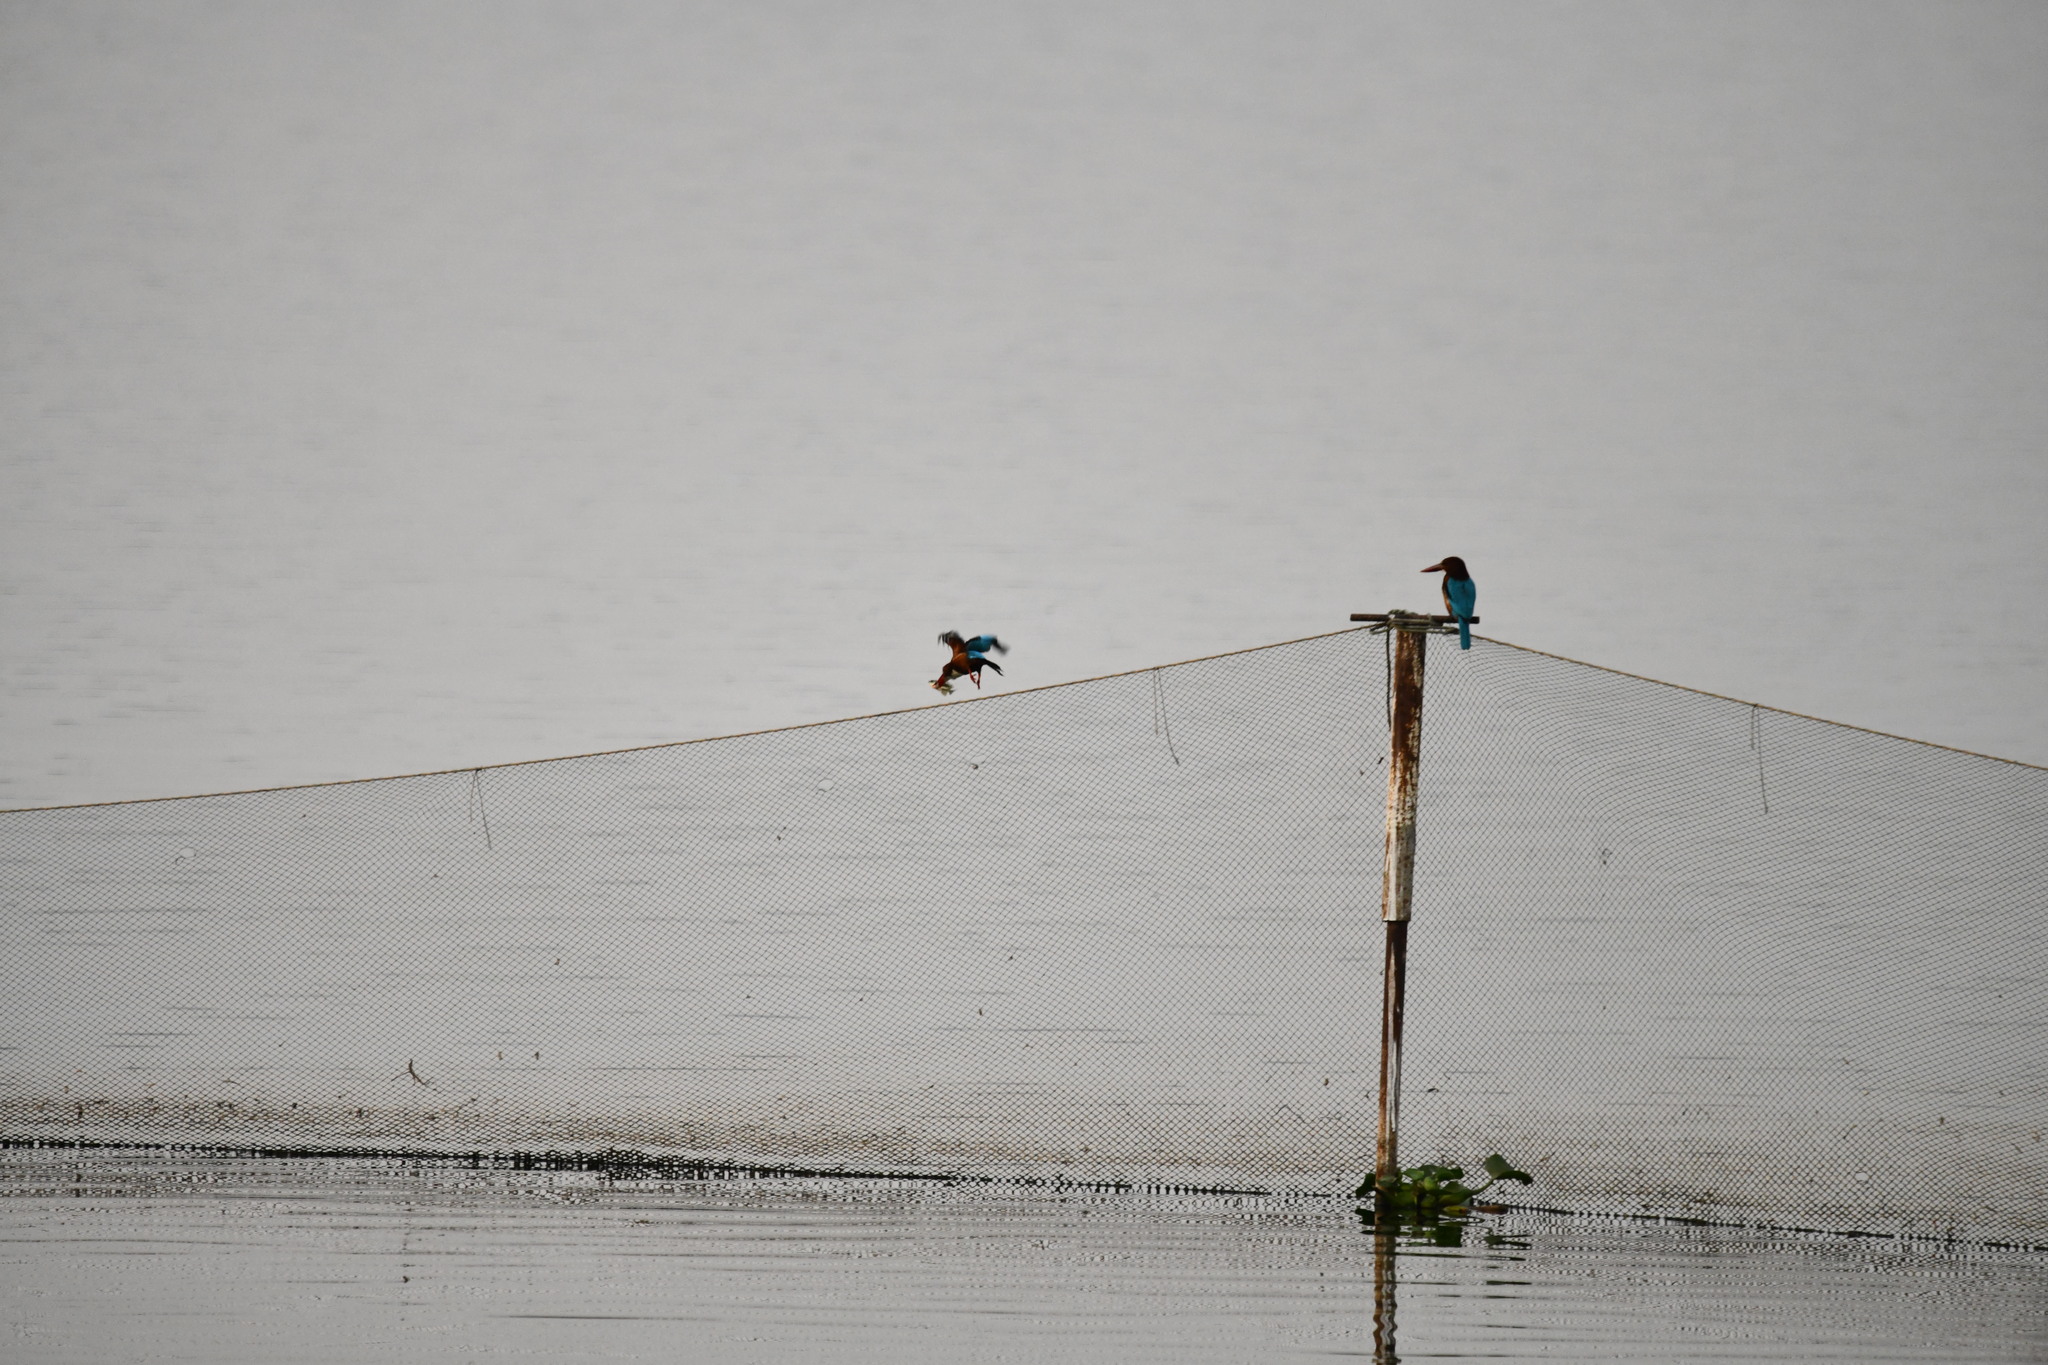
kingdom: Animalia
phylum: Chordata
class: Aves
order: Coraciiformes
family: Alcedinidae
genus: Halcyon
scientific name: Halcyon smyrnensis
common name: White-throated kingfisher
